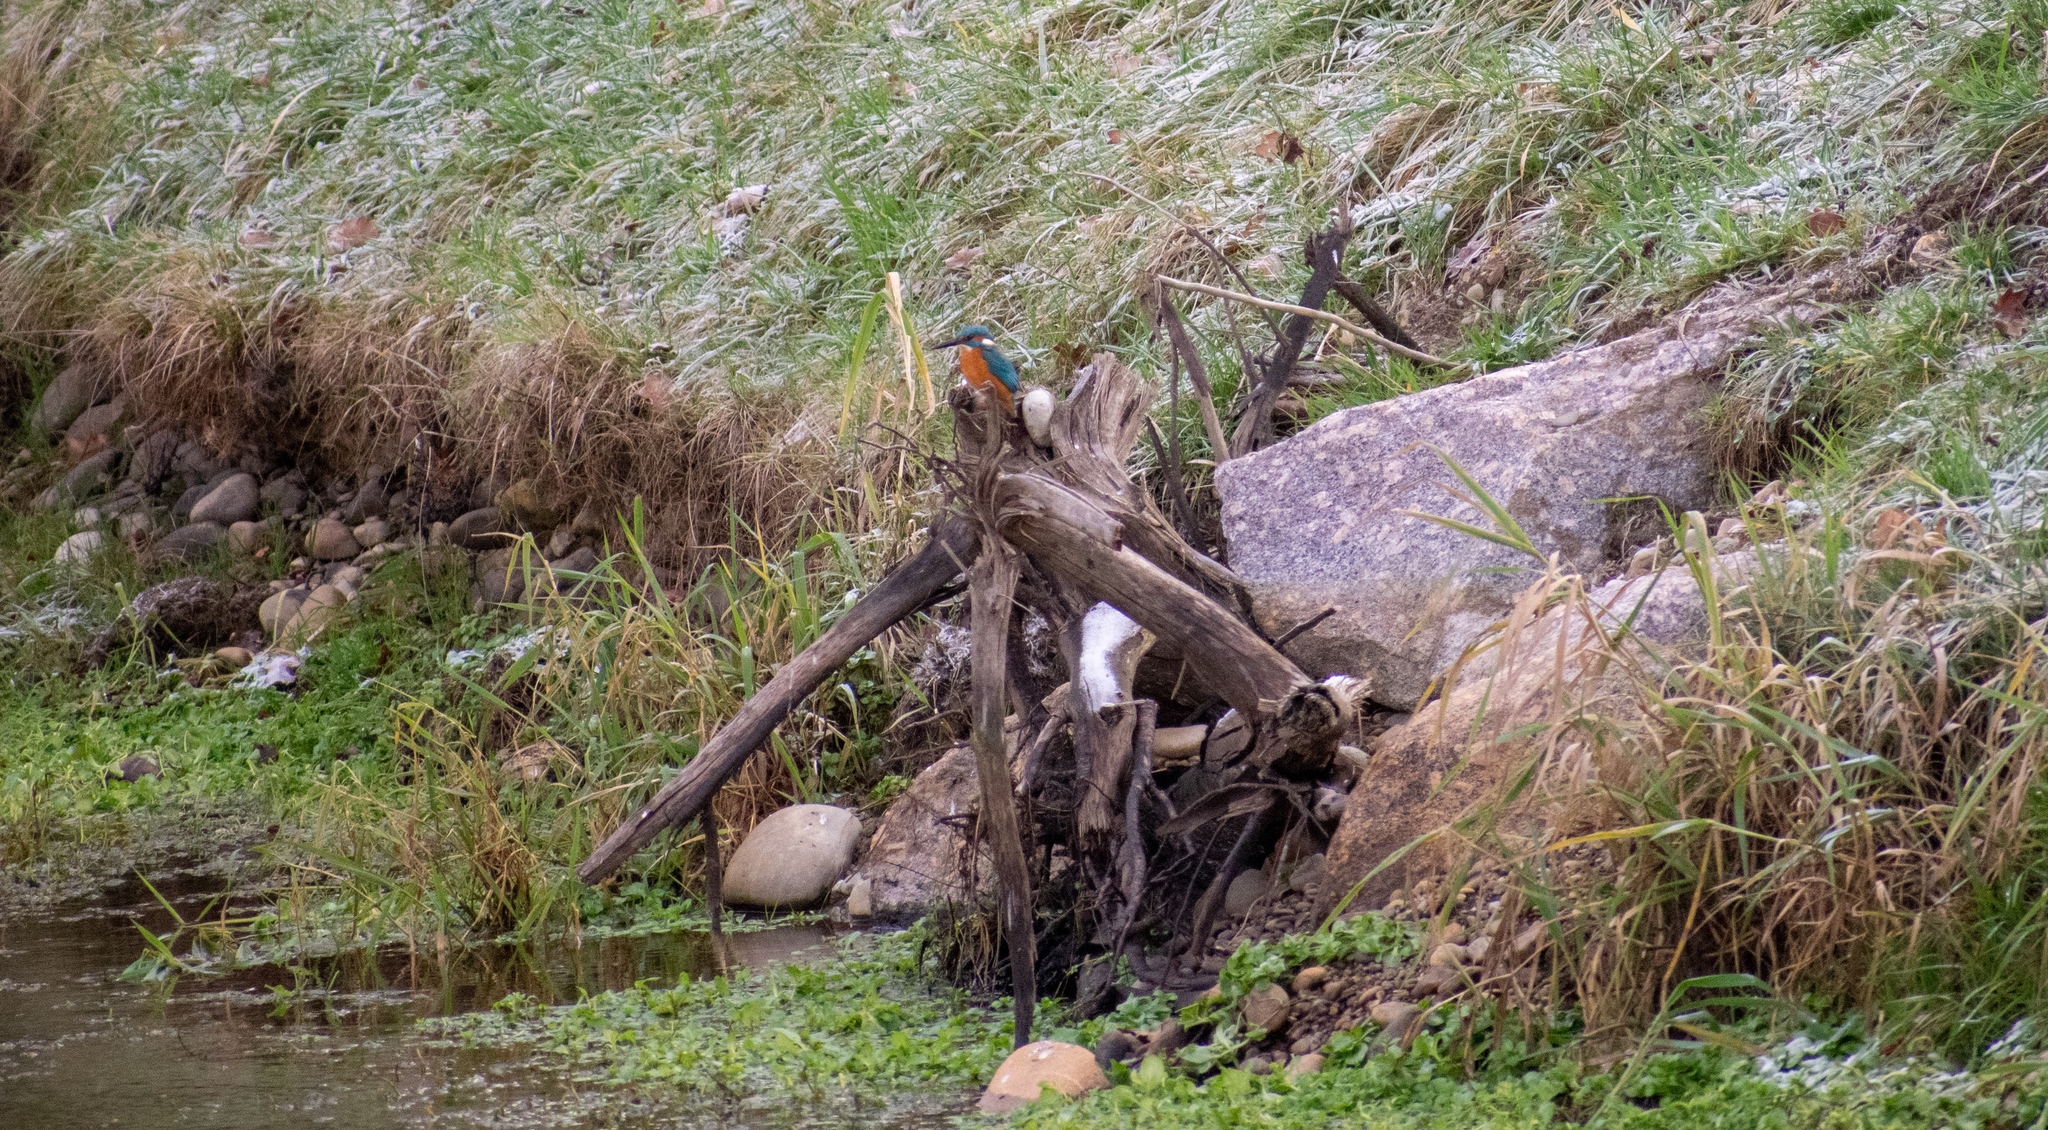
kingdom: Animalia
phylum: Chordata
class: Aves
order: Coraciiformes
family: Alcedinidae
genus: Alcedo
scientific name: Alcedo atthis
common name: Common kingfisher
